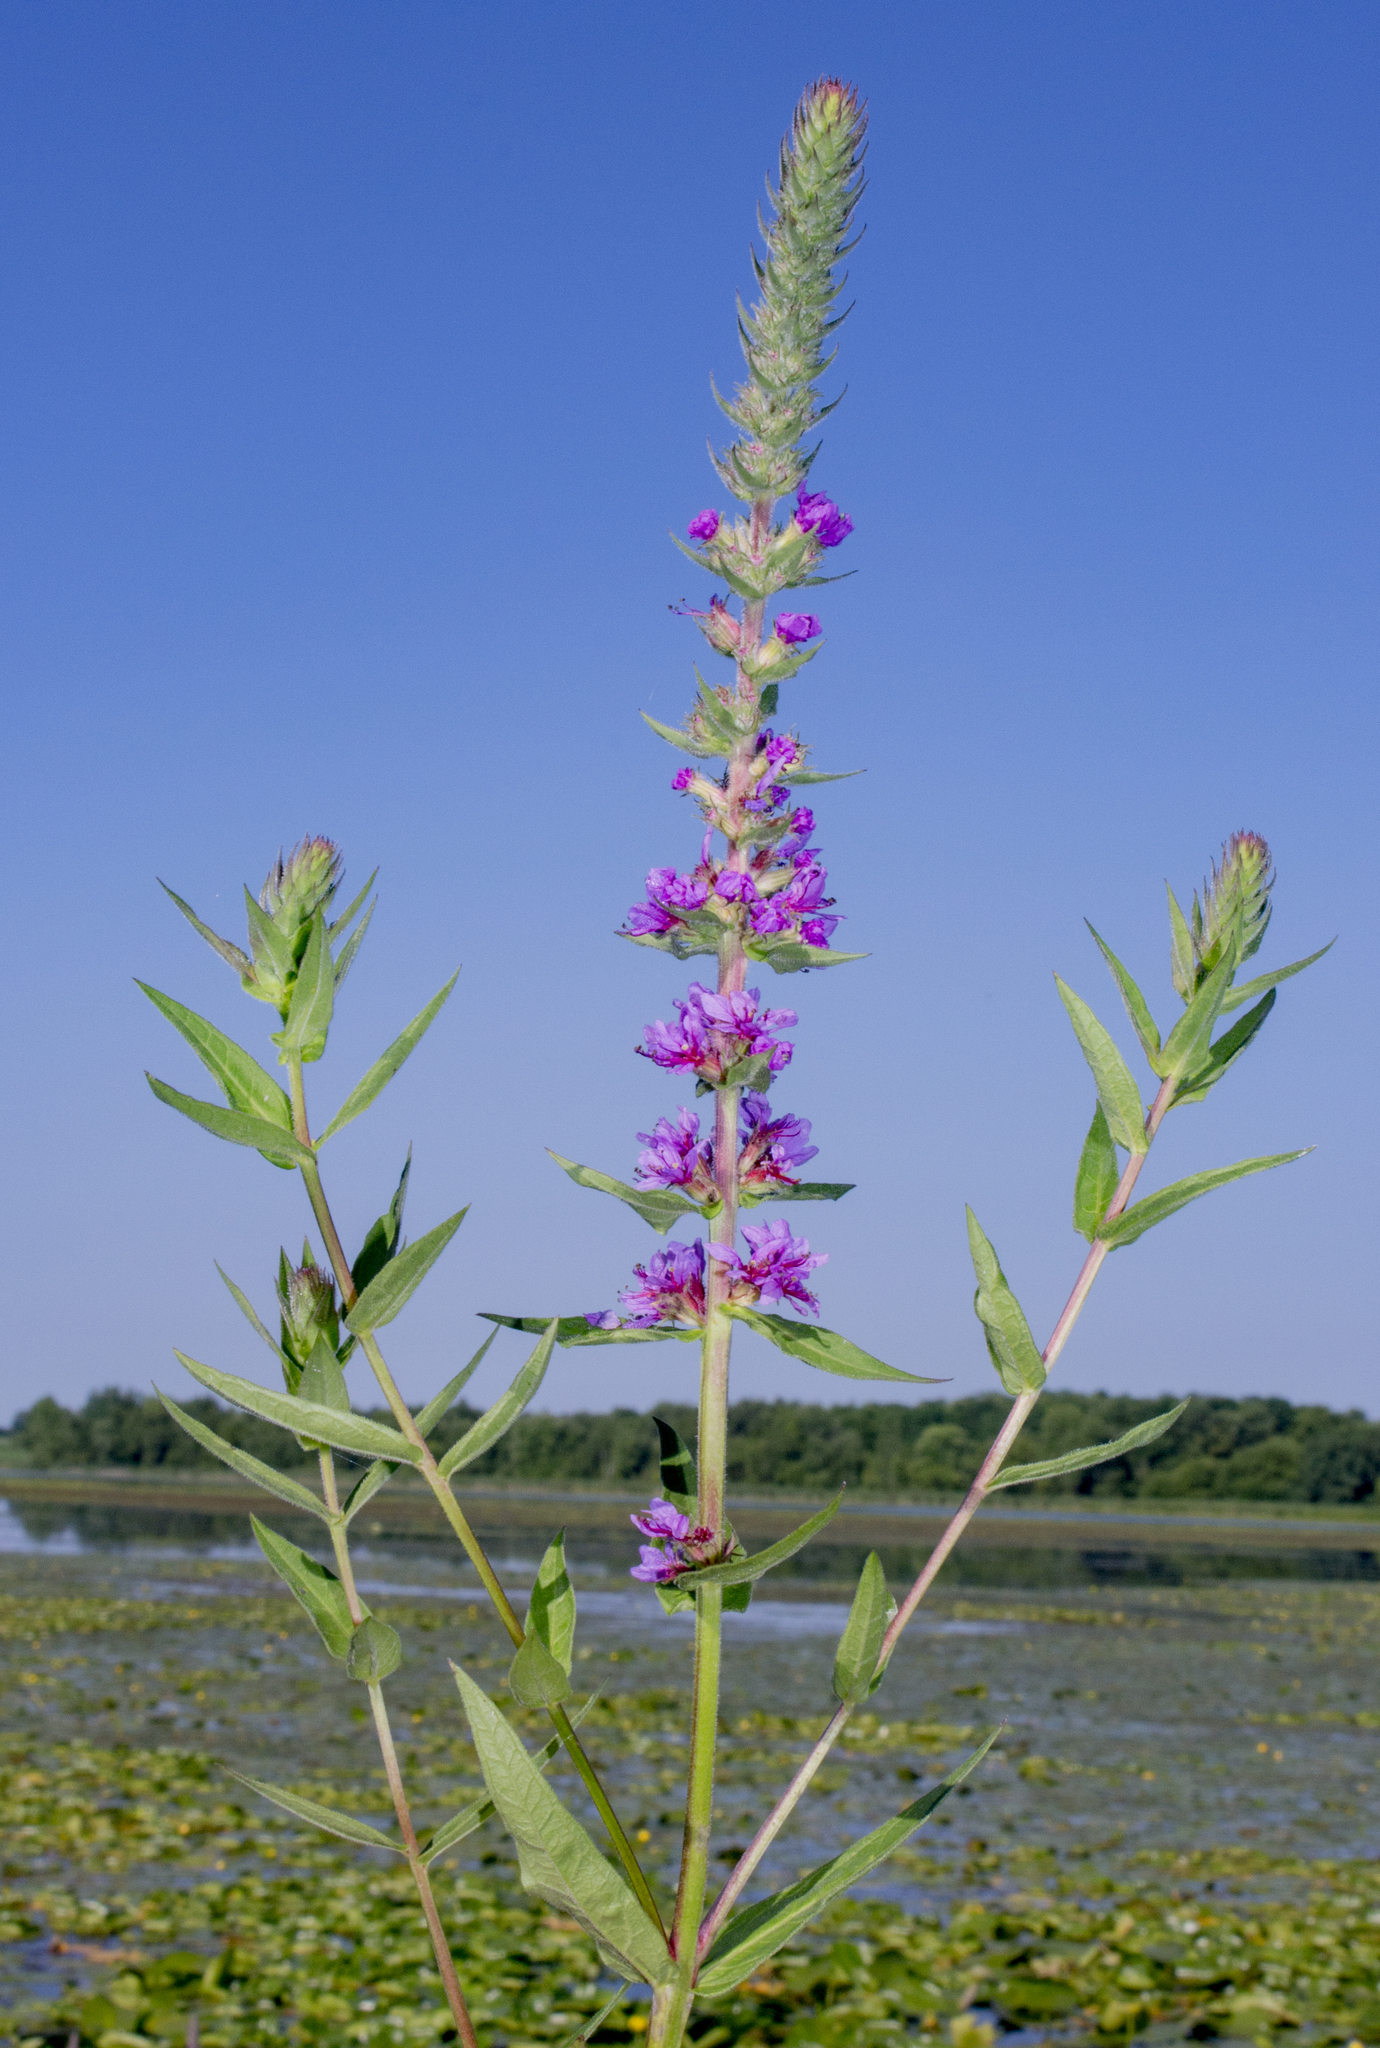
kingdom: Plantae
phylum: Tracheophyta
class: Magnoliopsida
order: Myrtales
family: Lythraceae
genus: Lythrum
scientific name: Lythrum salicaria
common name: Purple loosestrife
